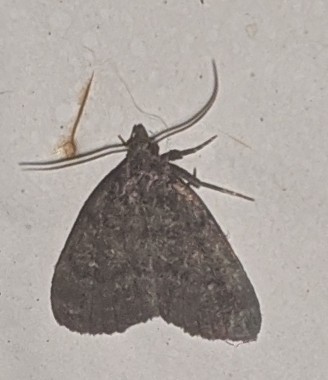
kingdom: Animalia
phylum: Arthropoda
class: Insecta
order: Lepidoptera
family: Erebidae
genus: Idia
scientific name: Idia rotundalis
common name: Rotund idia moth
